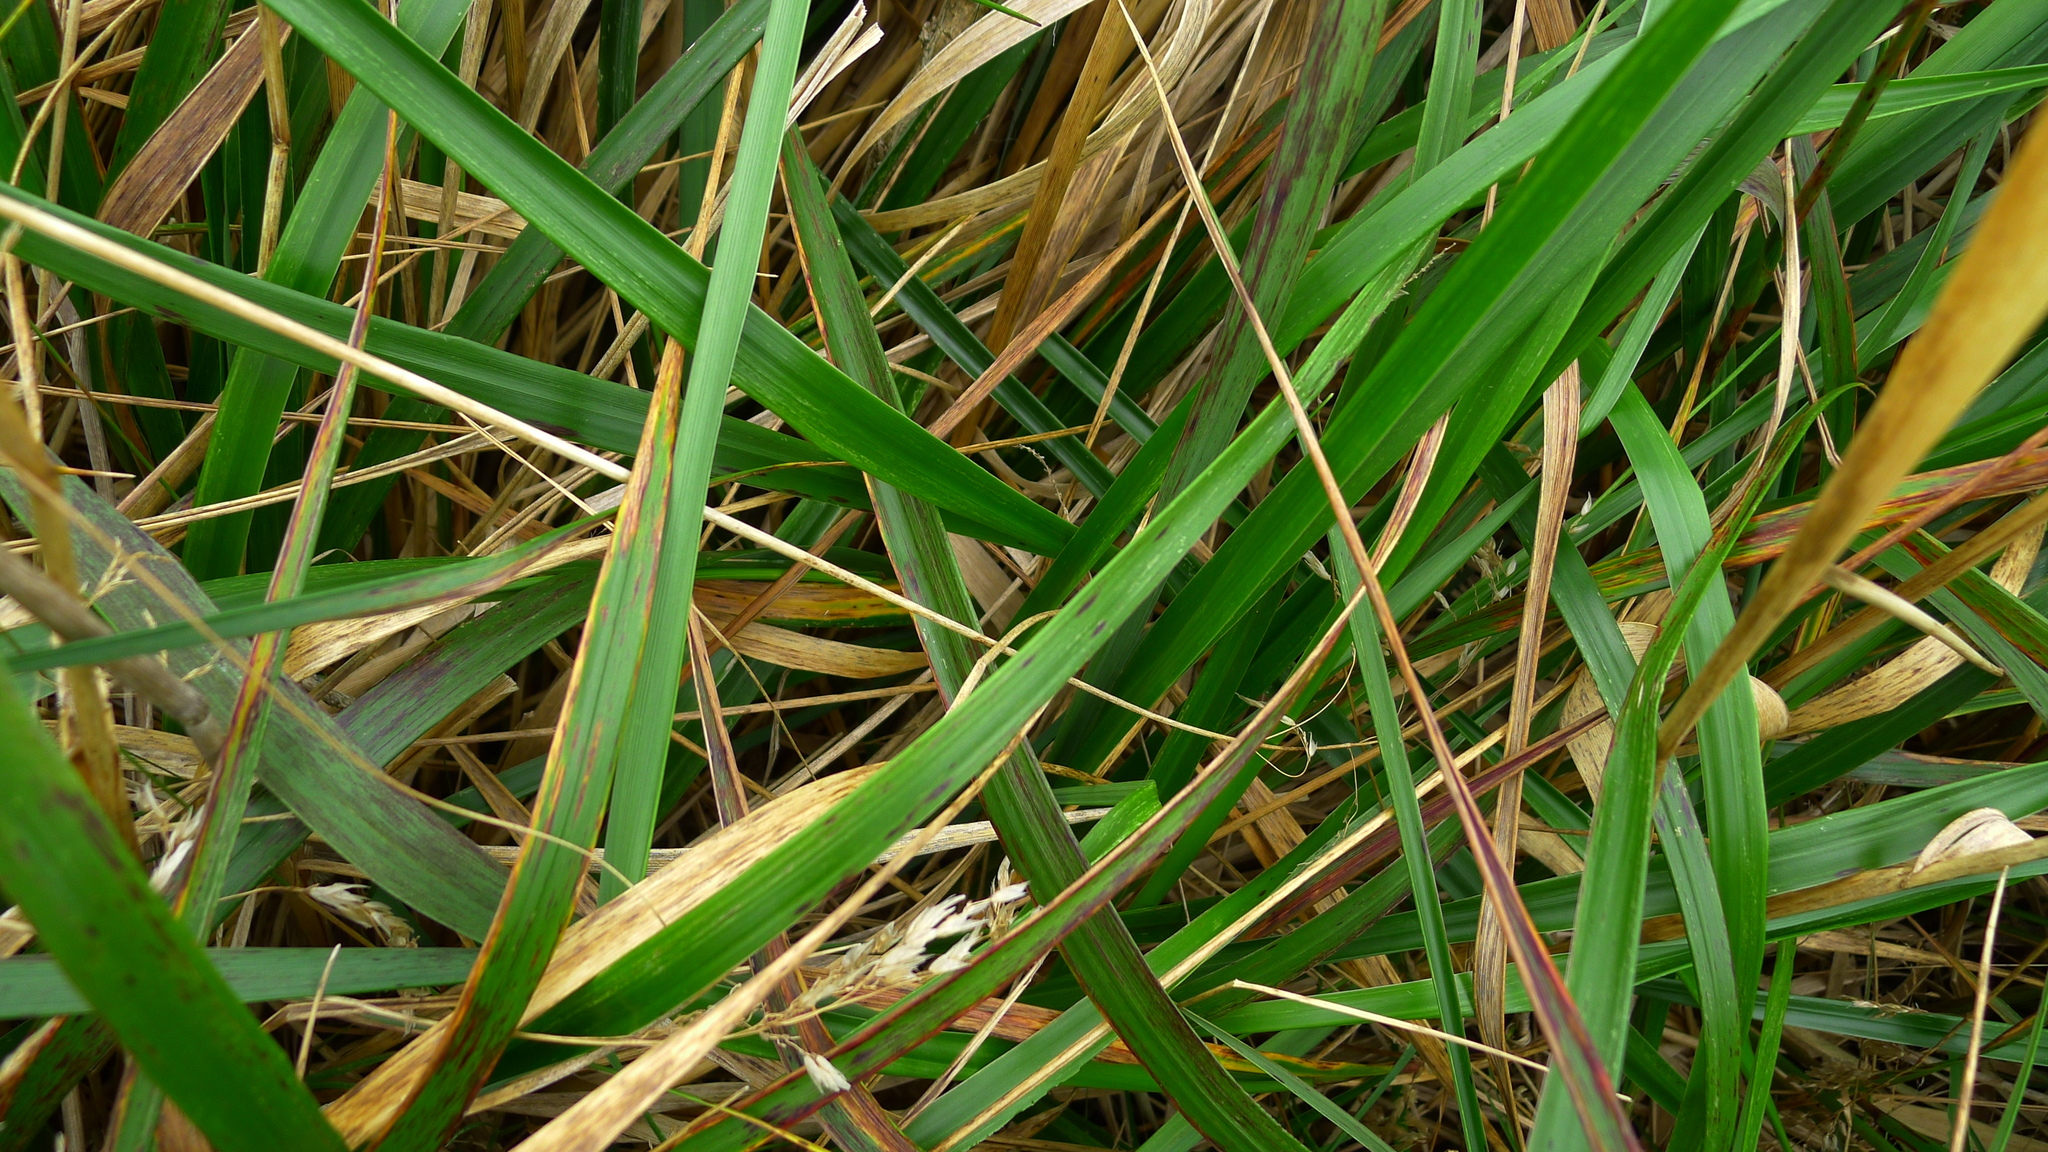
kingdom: Plantae
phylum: Tracheophyta
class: Liliopsida
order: Poales
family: Poaceae
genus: Anthoxanthum
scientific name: Anthoxanthum redolens
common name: Sweet holy grass
